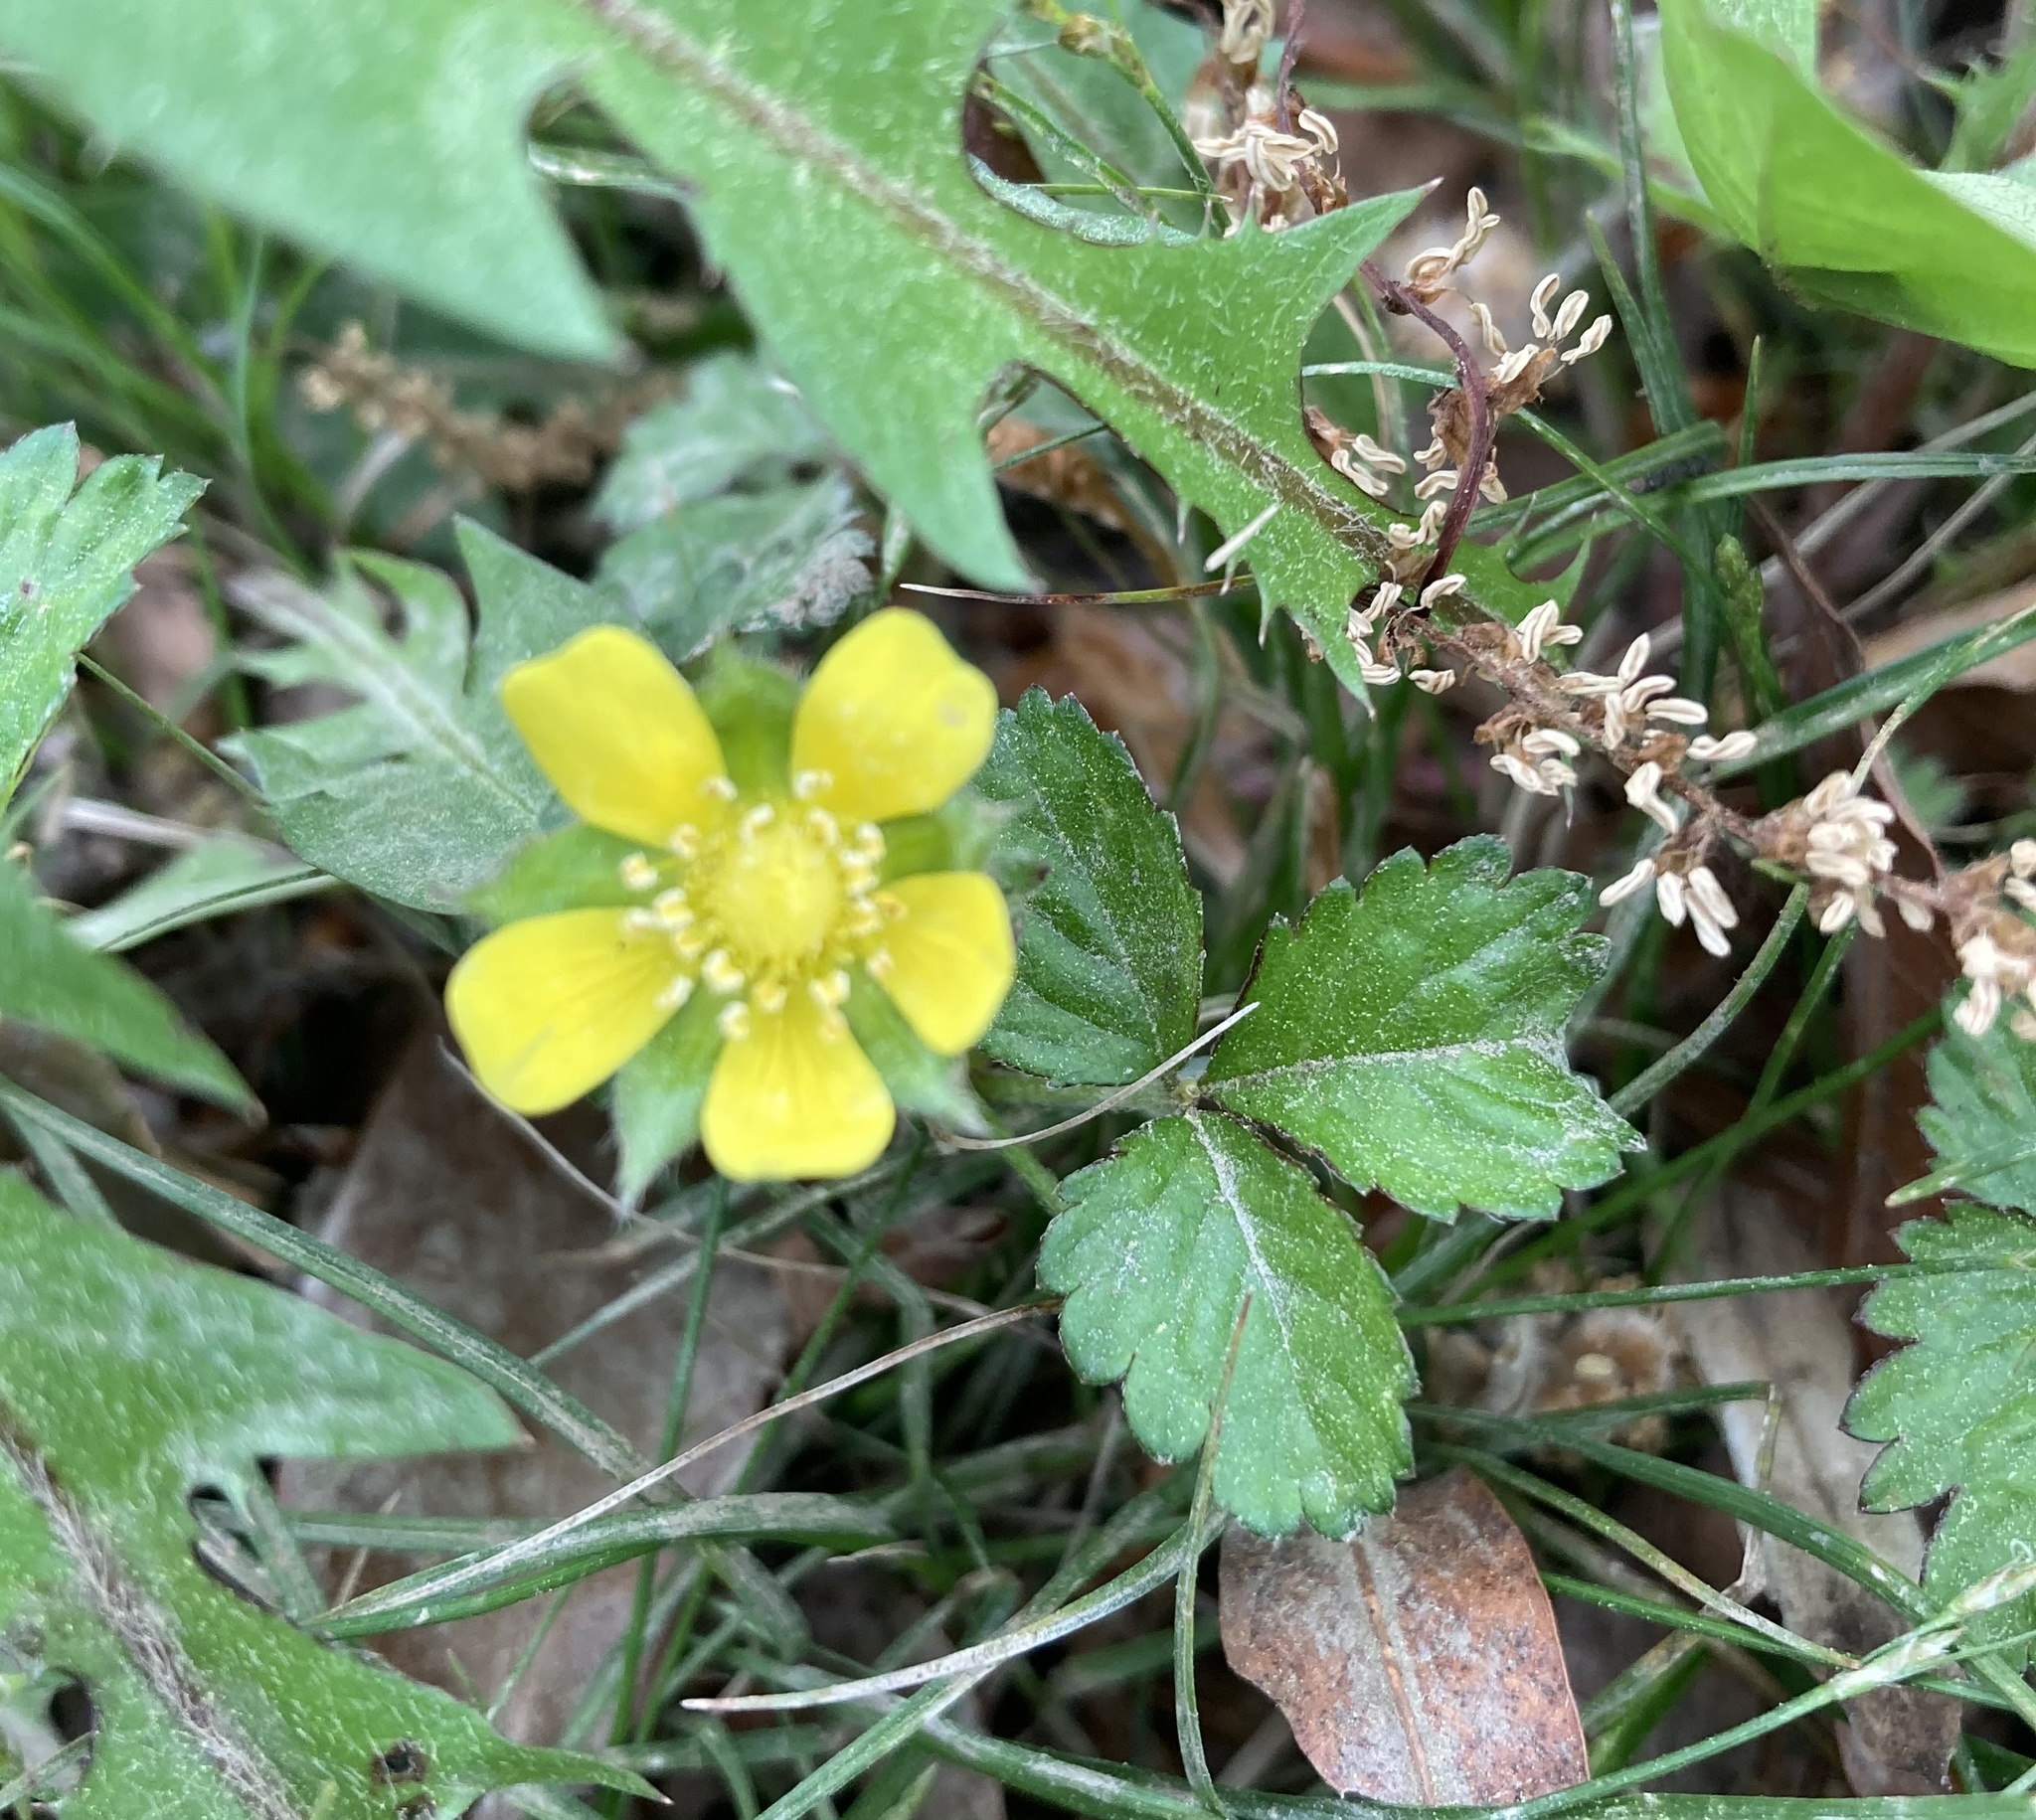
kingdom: Plantae
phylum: Tracheophyta
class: Magnoliopsida
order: Rosales
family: Rosaceae
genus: Potentilla
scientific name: Potentilla indica
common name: Yellow-flowered strawberry
